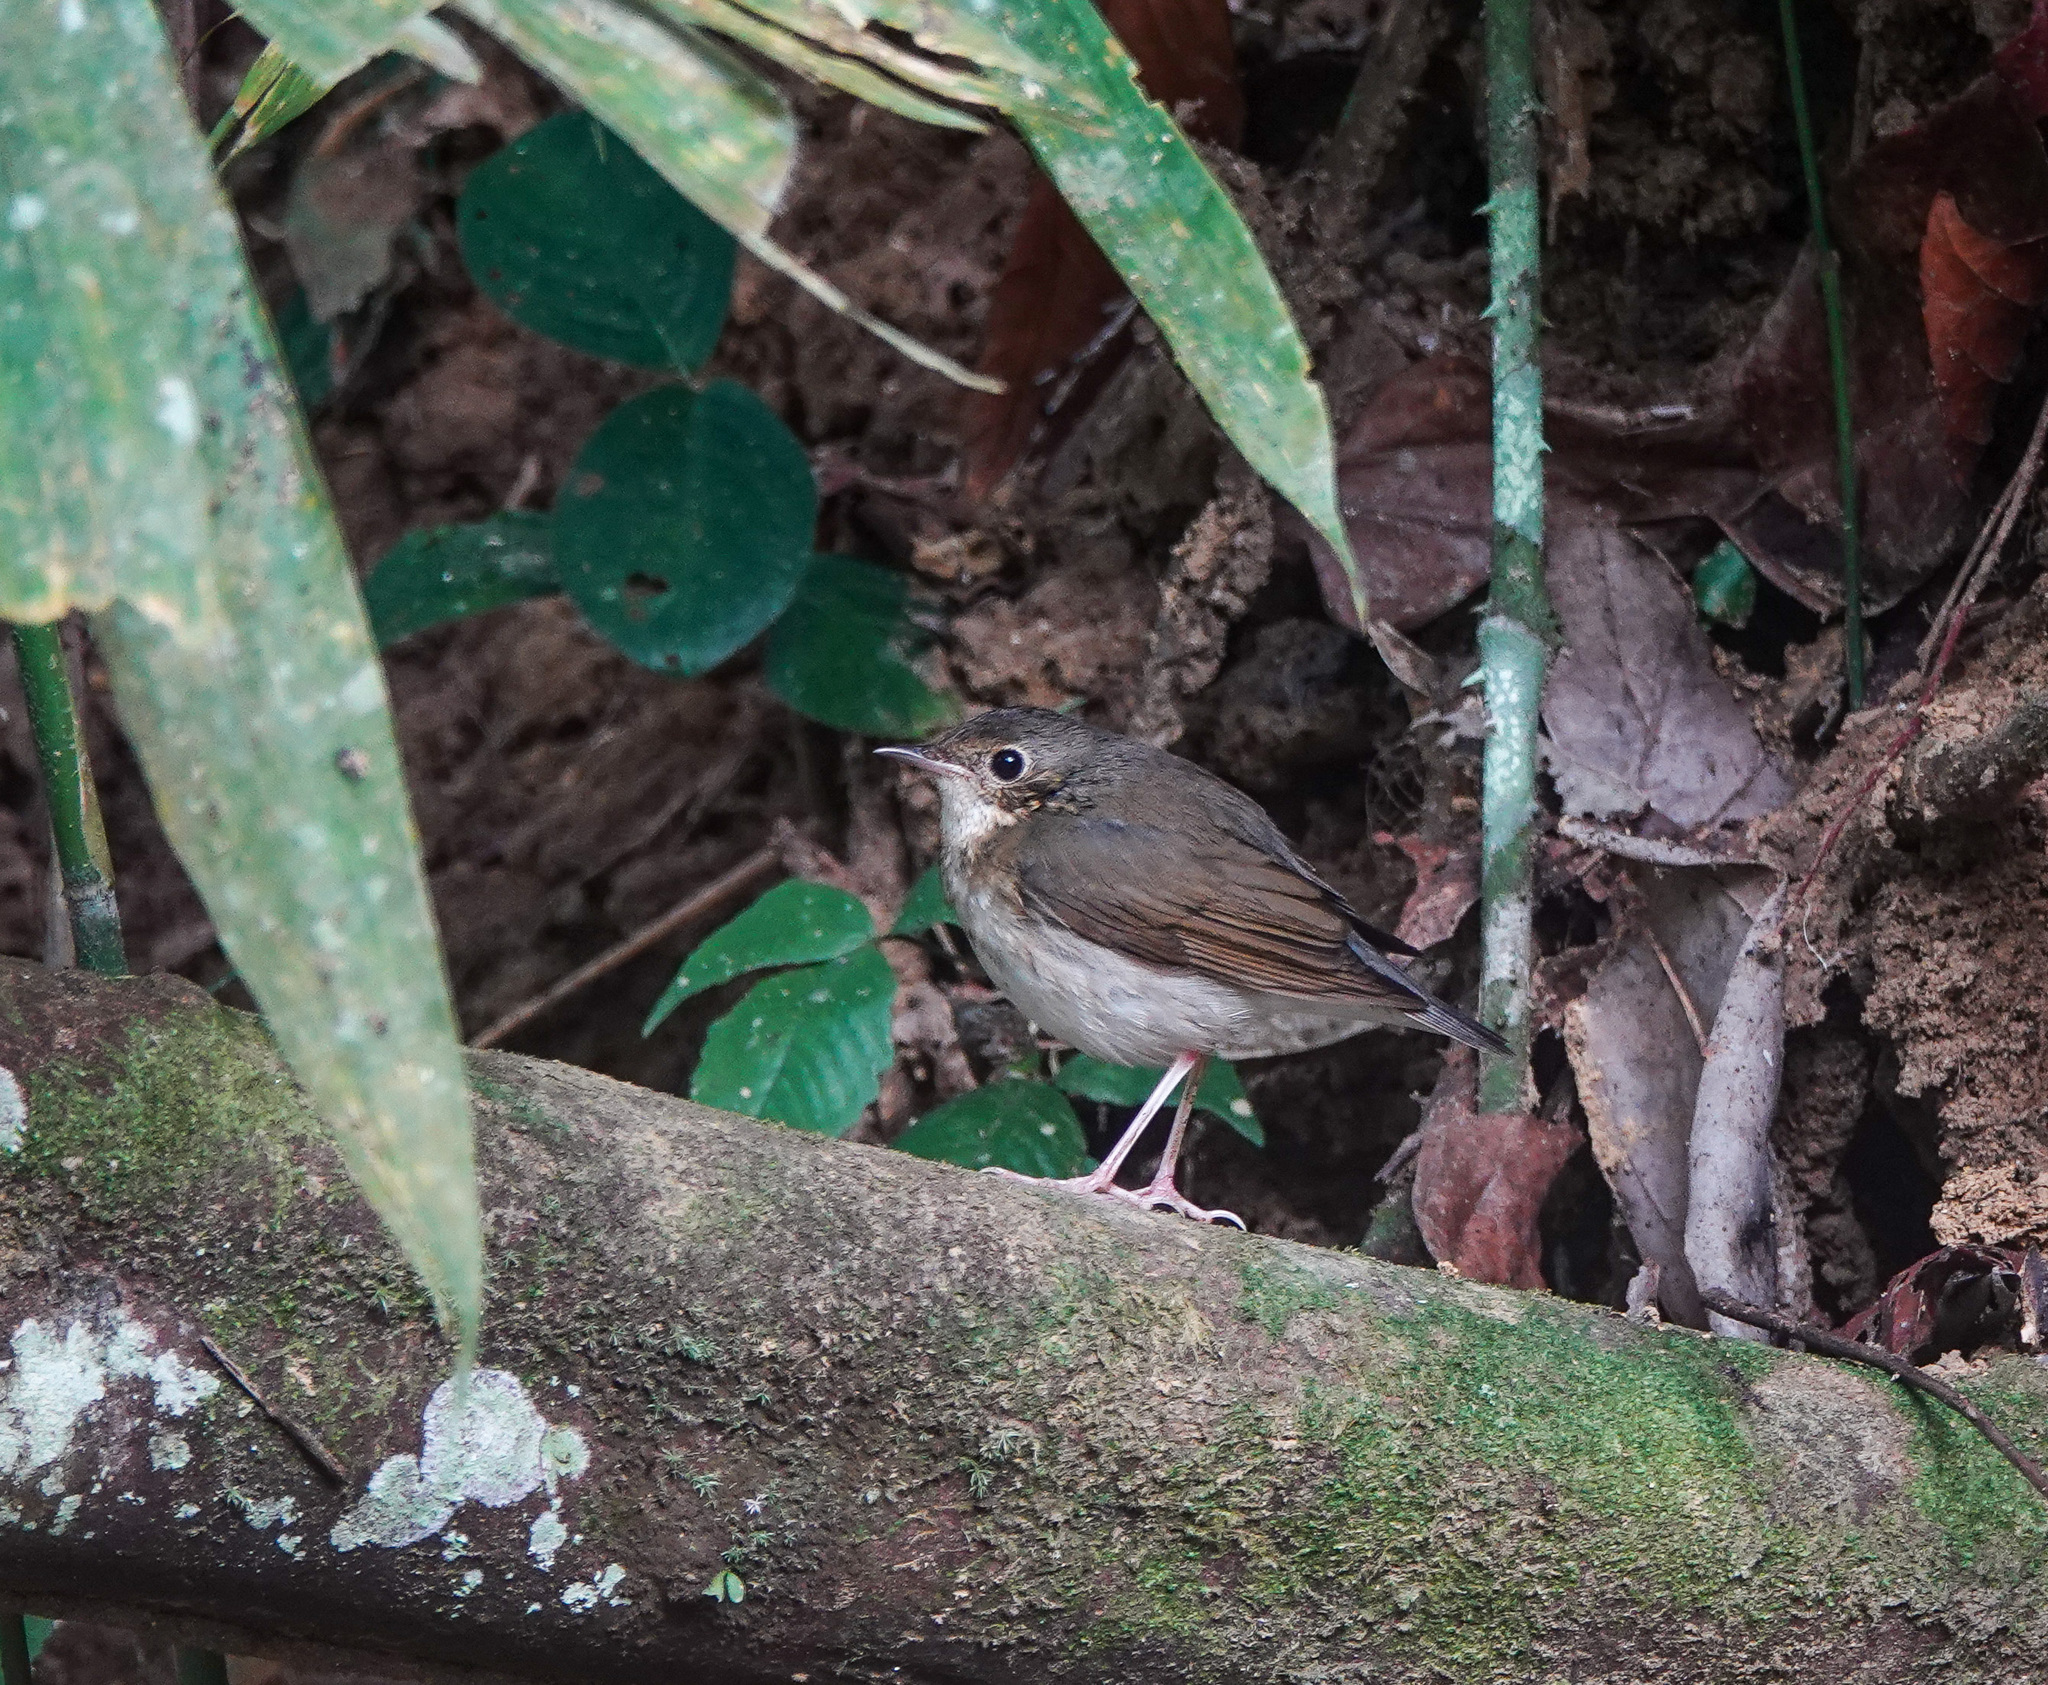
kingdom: Animalia
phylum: Chordata
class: Aves
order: Passeriformes
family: Muscicapidae
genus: Luscinia
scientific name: Luscinia cyane
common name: Siberian blue robin
